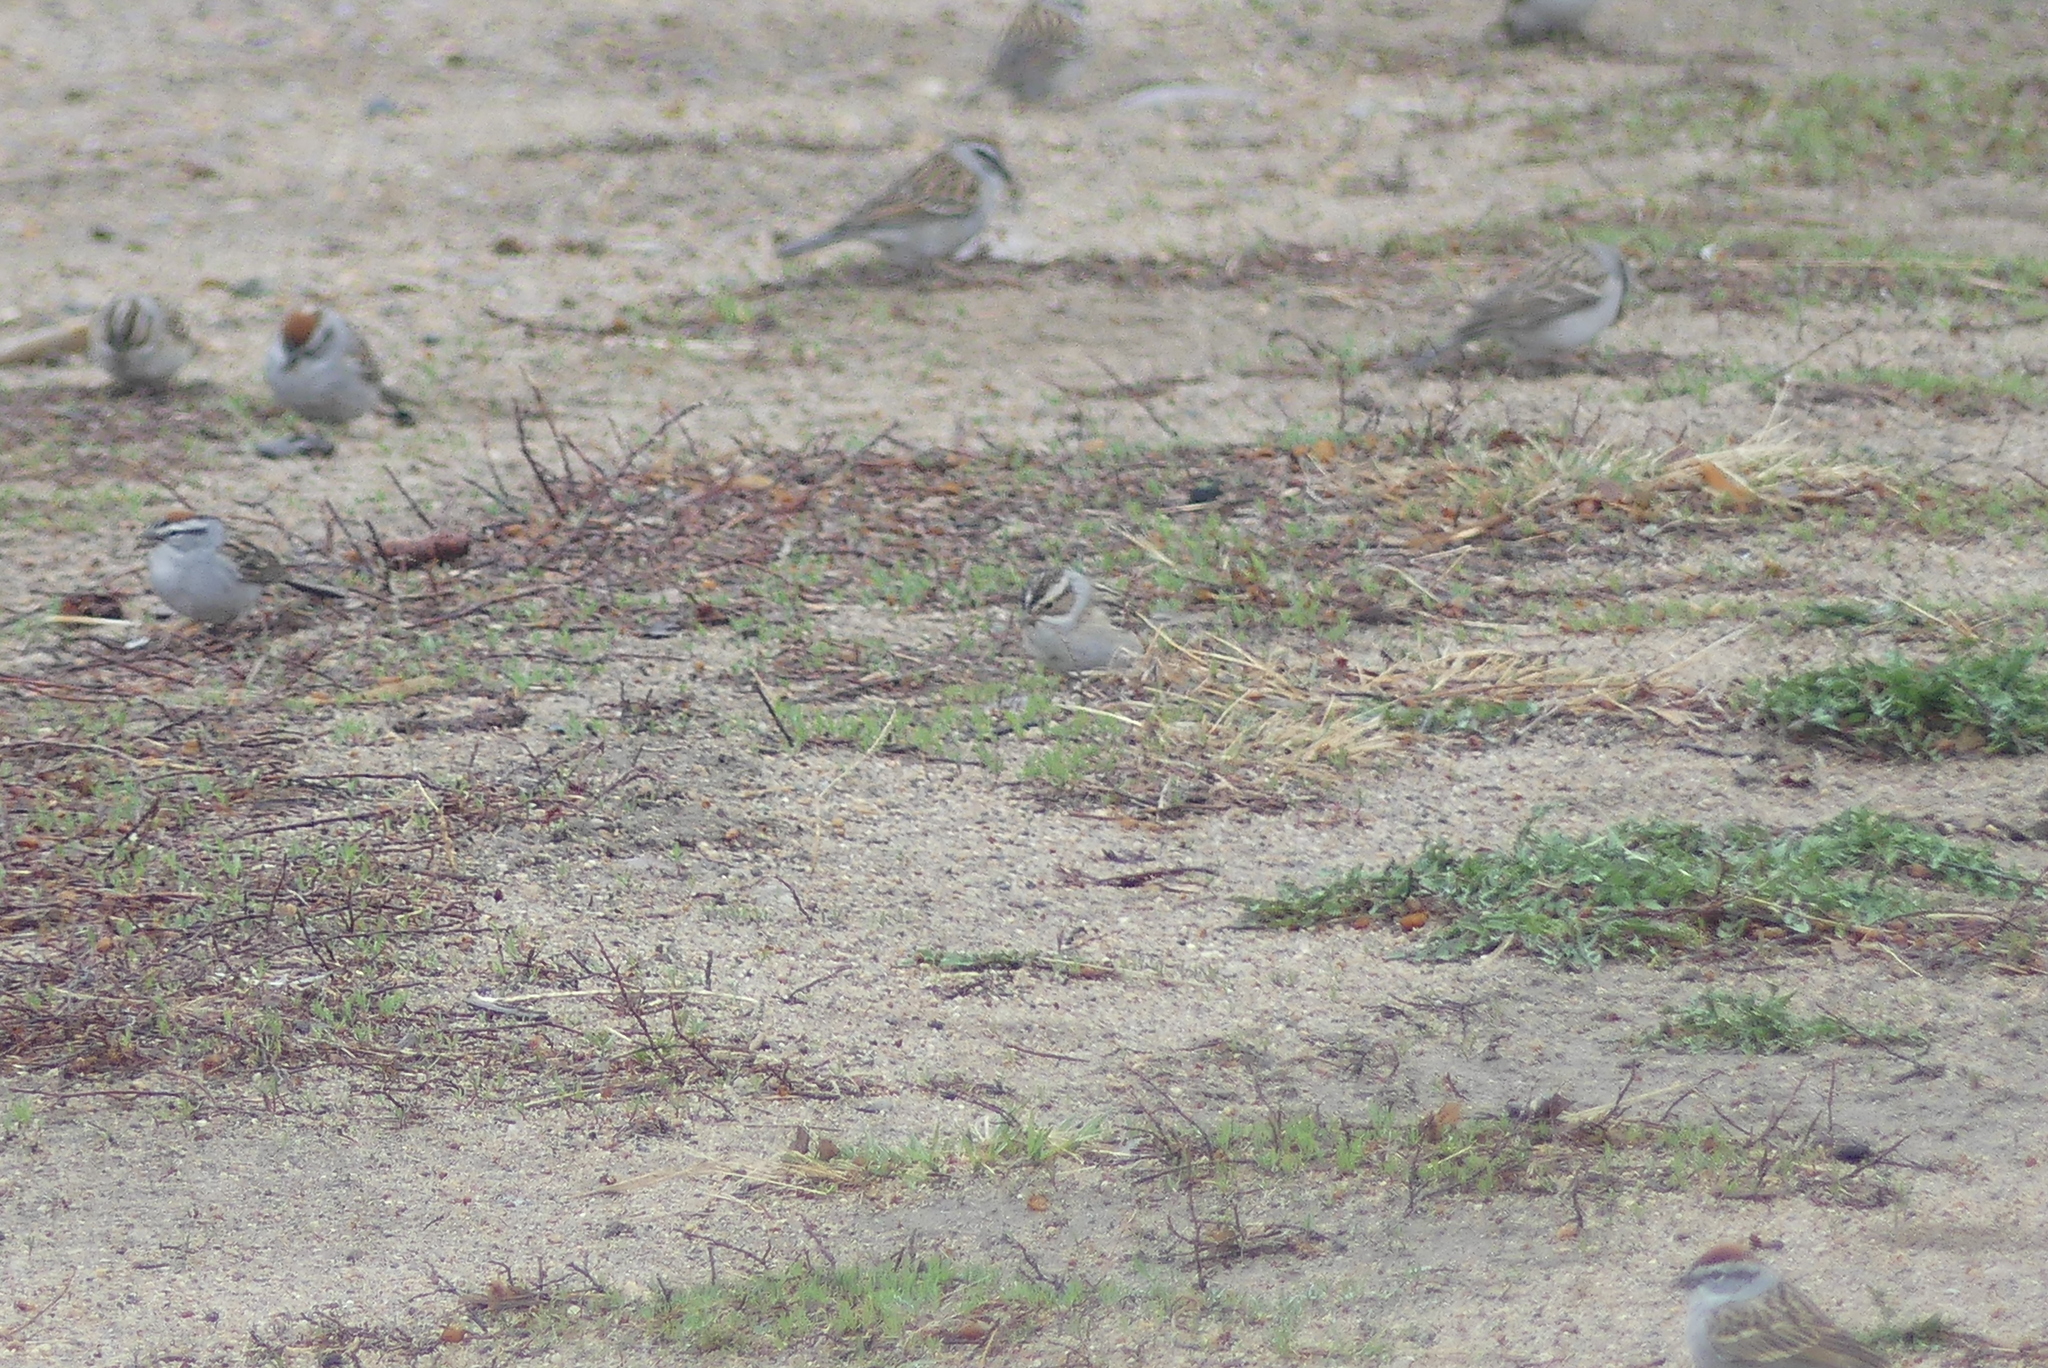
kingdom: Animalia
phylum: Chordata
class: Aves
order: Passeriformes
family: Passerellidae
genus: Spizella
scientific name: Spizella pallida
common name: Clay-colored sparrow
